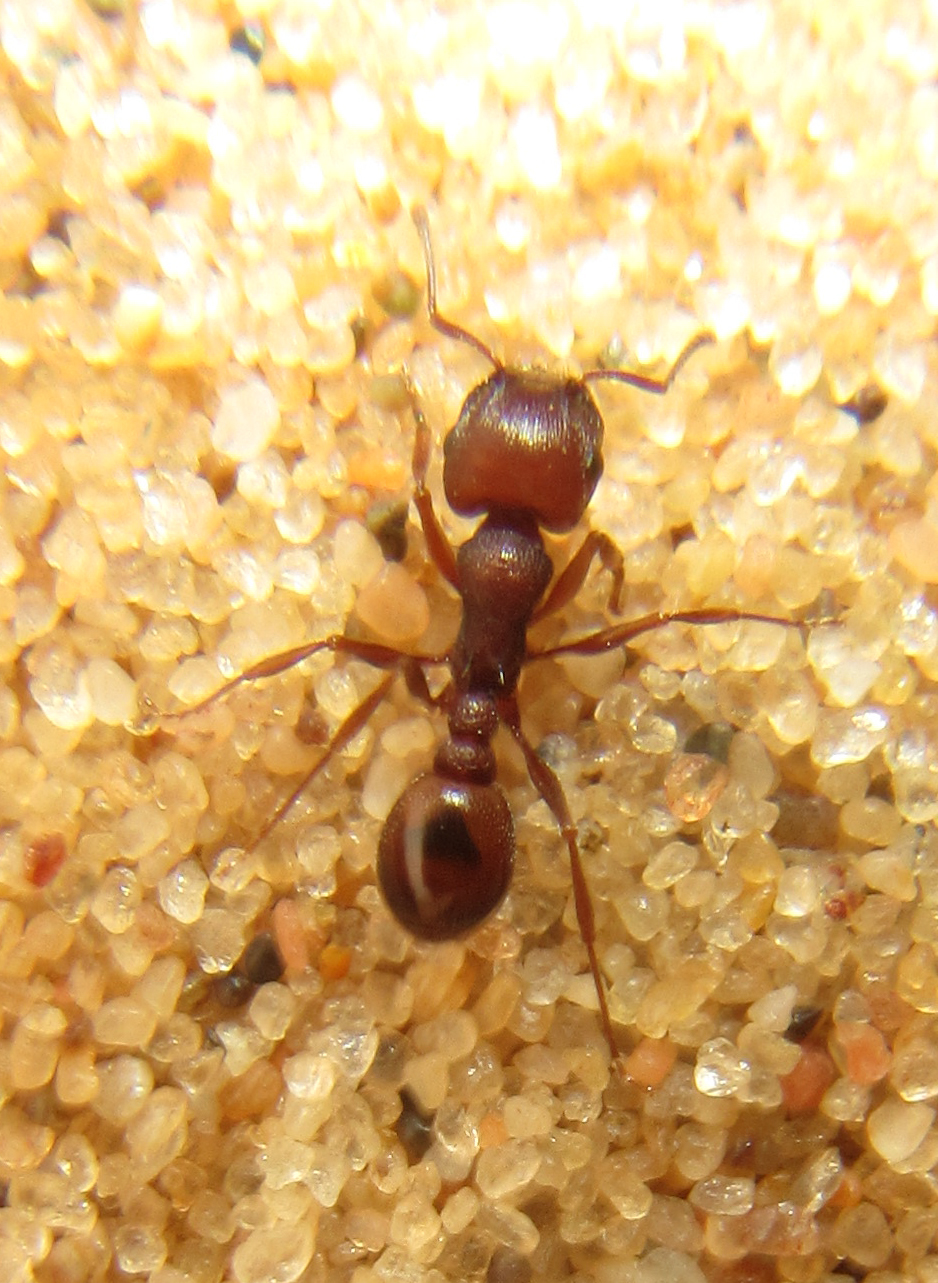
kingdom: Animalia
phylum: Arthropoda
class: Insecta
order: Hymenoptera
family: Formicidae
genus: Tetramorium
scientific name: Tetramorium setuliferum
